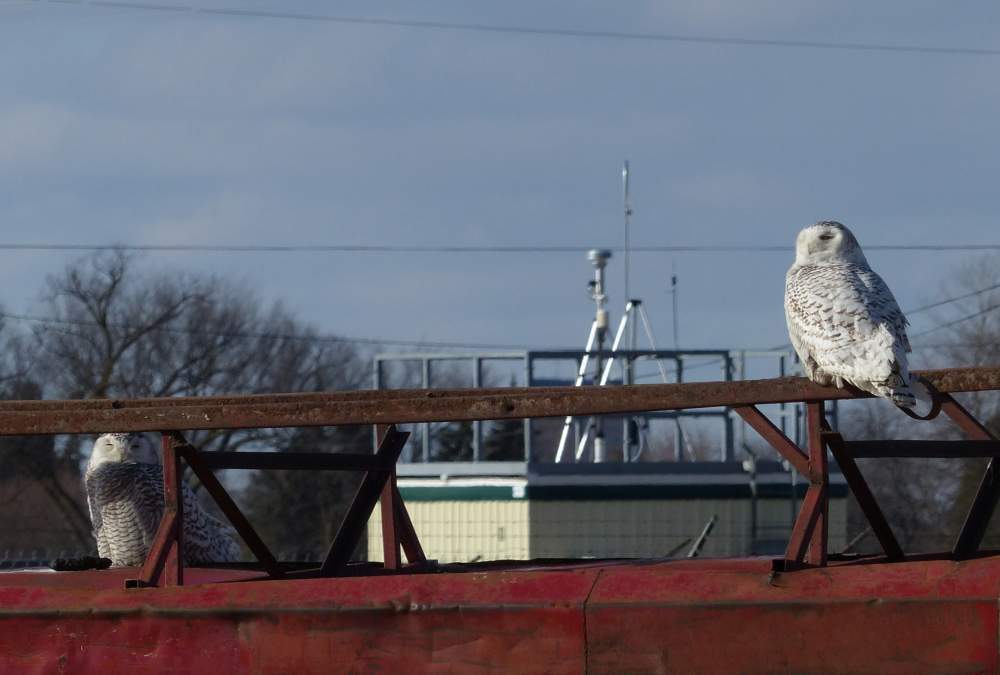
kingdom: Animalia
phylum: Chordata
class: Aves
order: Strigiformes
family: Strigidae
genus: Bubo
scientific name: Bubo scandiacus
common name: Snowy owl
